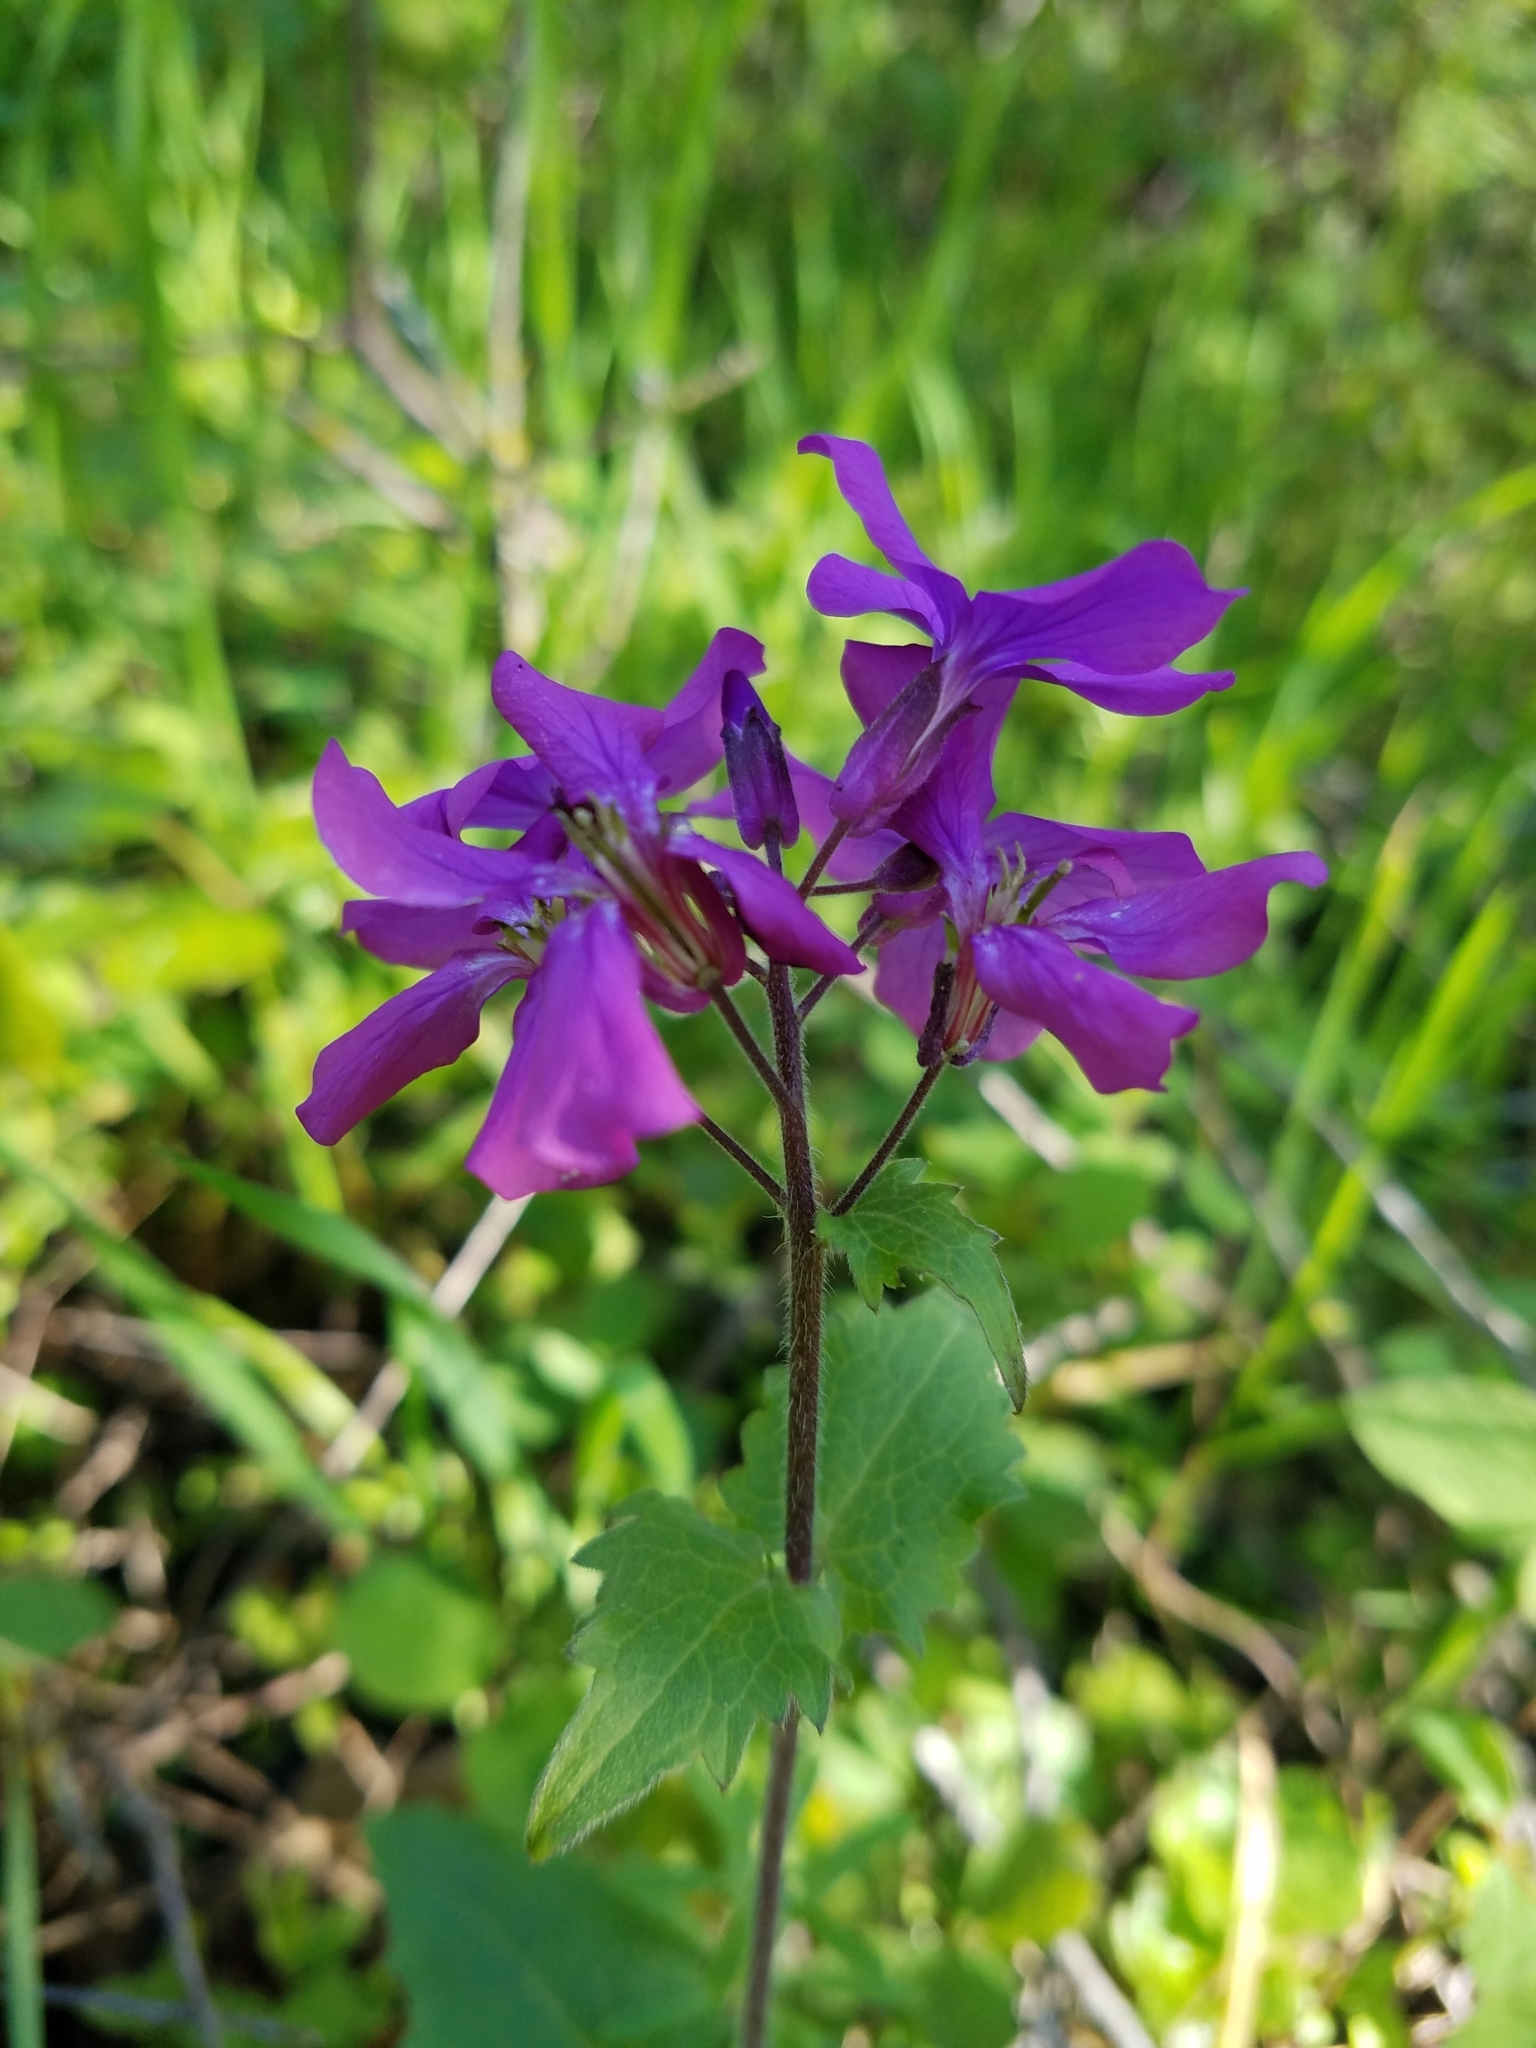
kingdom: Plantae
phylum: Tracheophyta
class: Magnoliopsida
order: Brassicales
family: Brassicaceae
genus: Lunaria
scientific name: Lunaria annua
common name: Honesty
